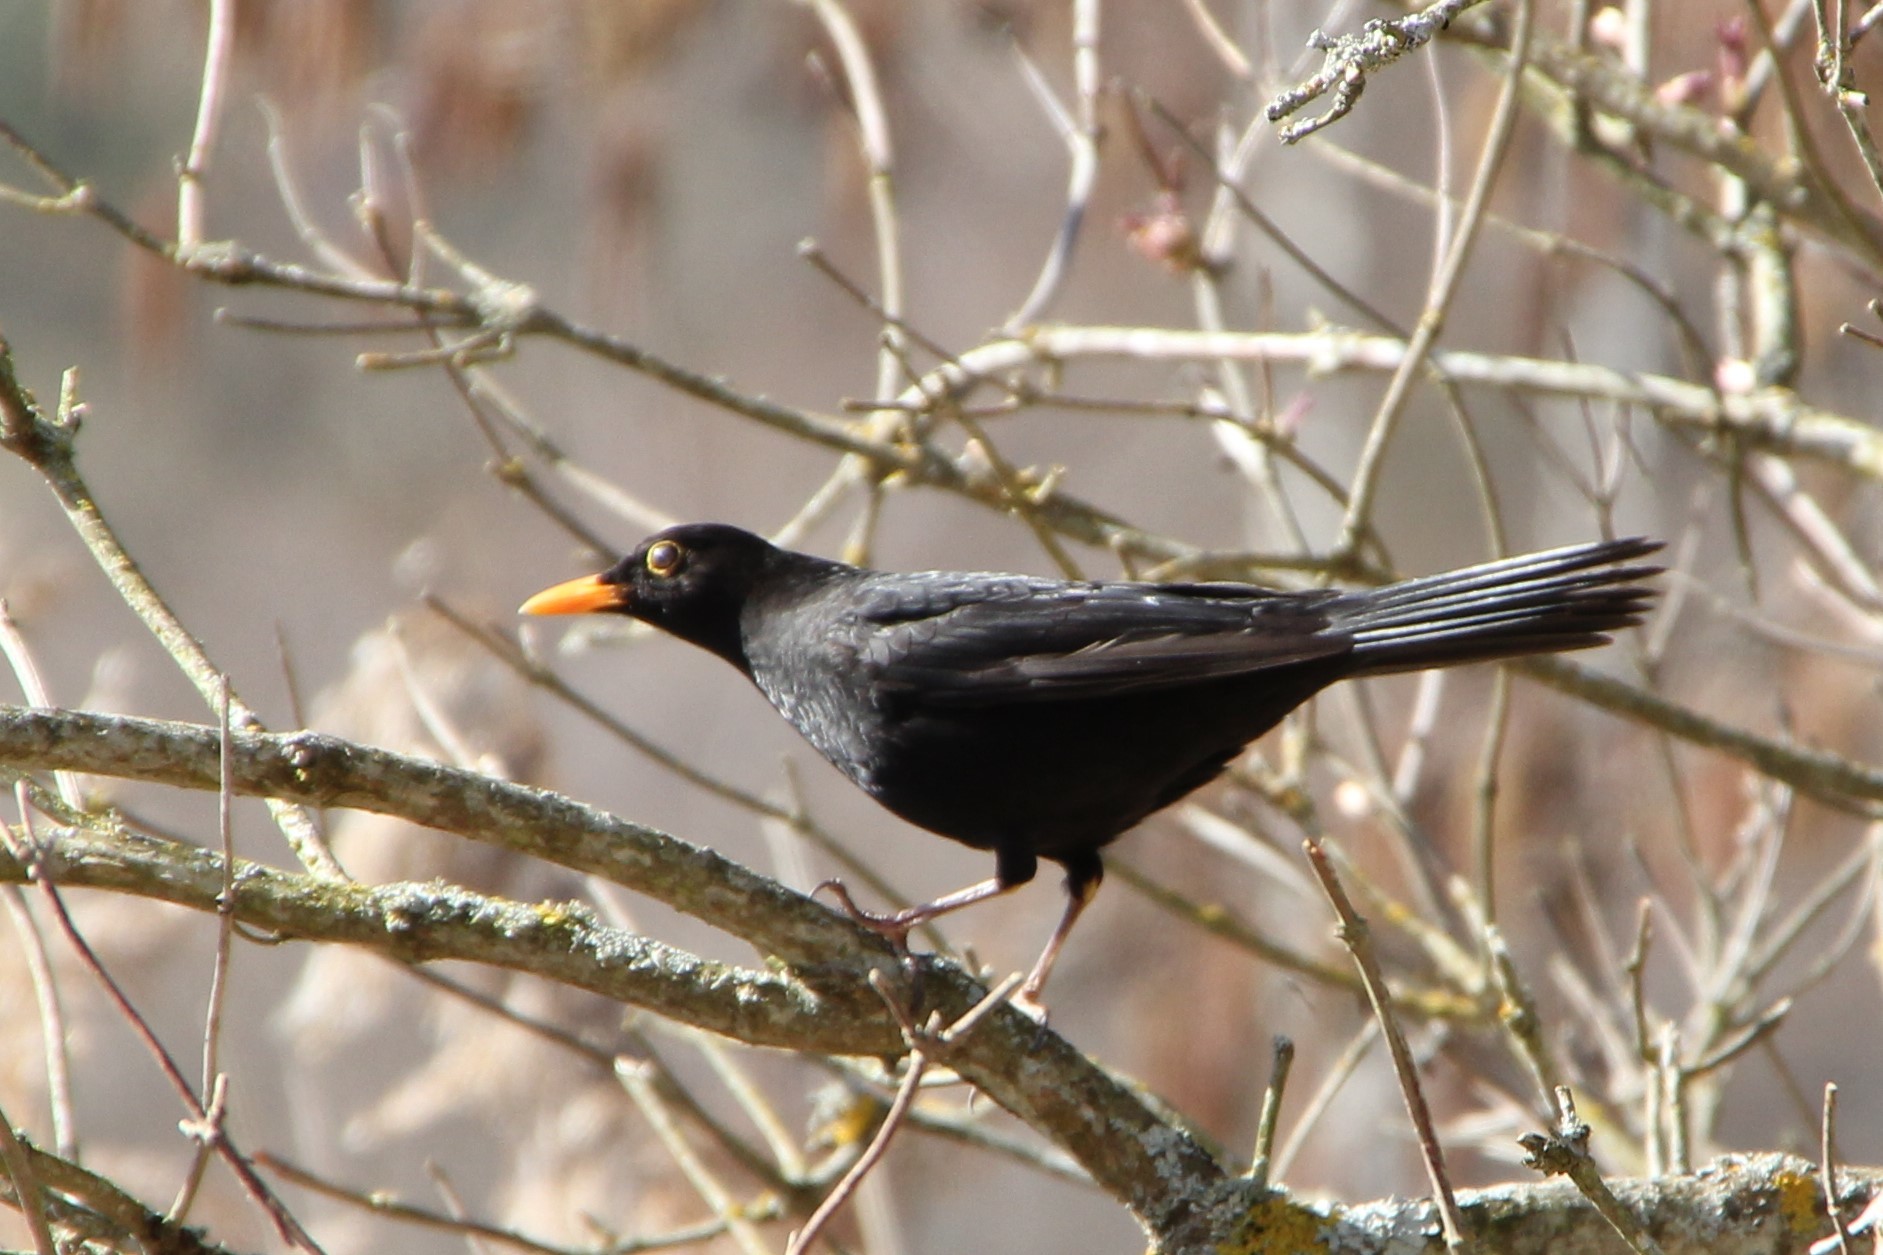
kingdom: Animalia
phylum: Chordata
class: Aves
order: Passeriformes
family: Turdidae
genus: Turdus
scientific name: Turdus merula
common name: Common blackbird
